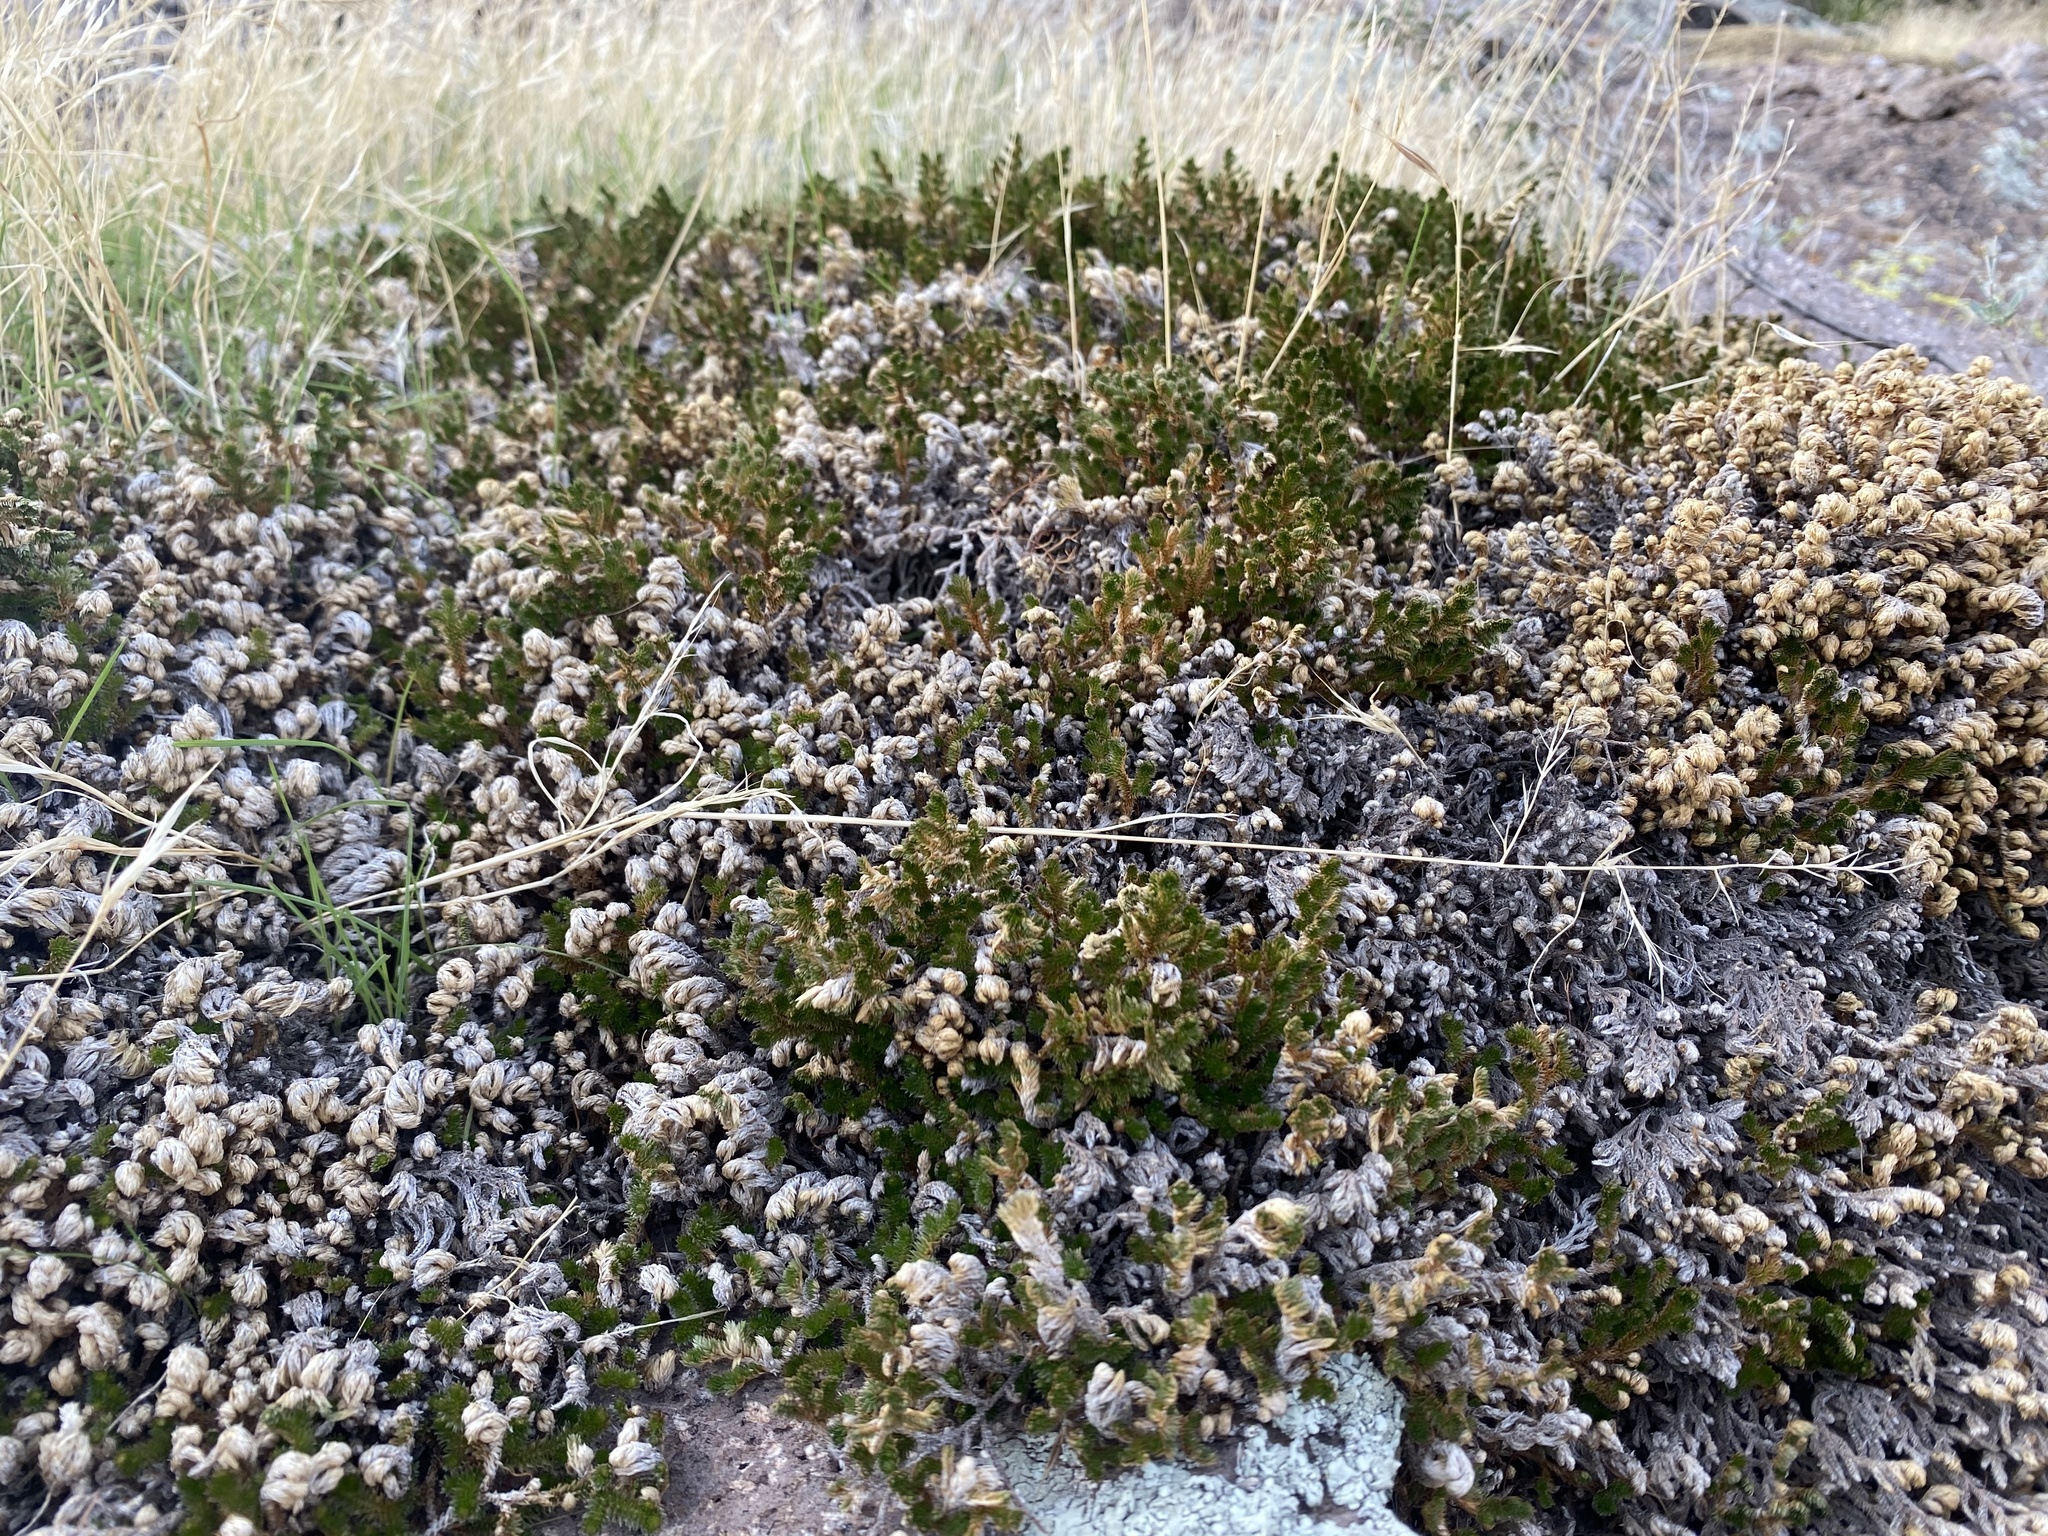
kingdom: Plantae
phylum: Tracheophyta
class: Lycopodiopsida
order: Selaginellales
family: Selaginellaceae
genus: Selaginella
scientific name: Selaginella arizonica
